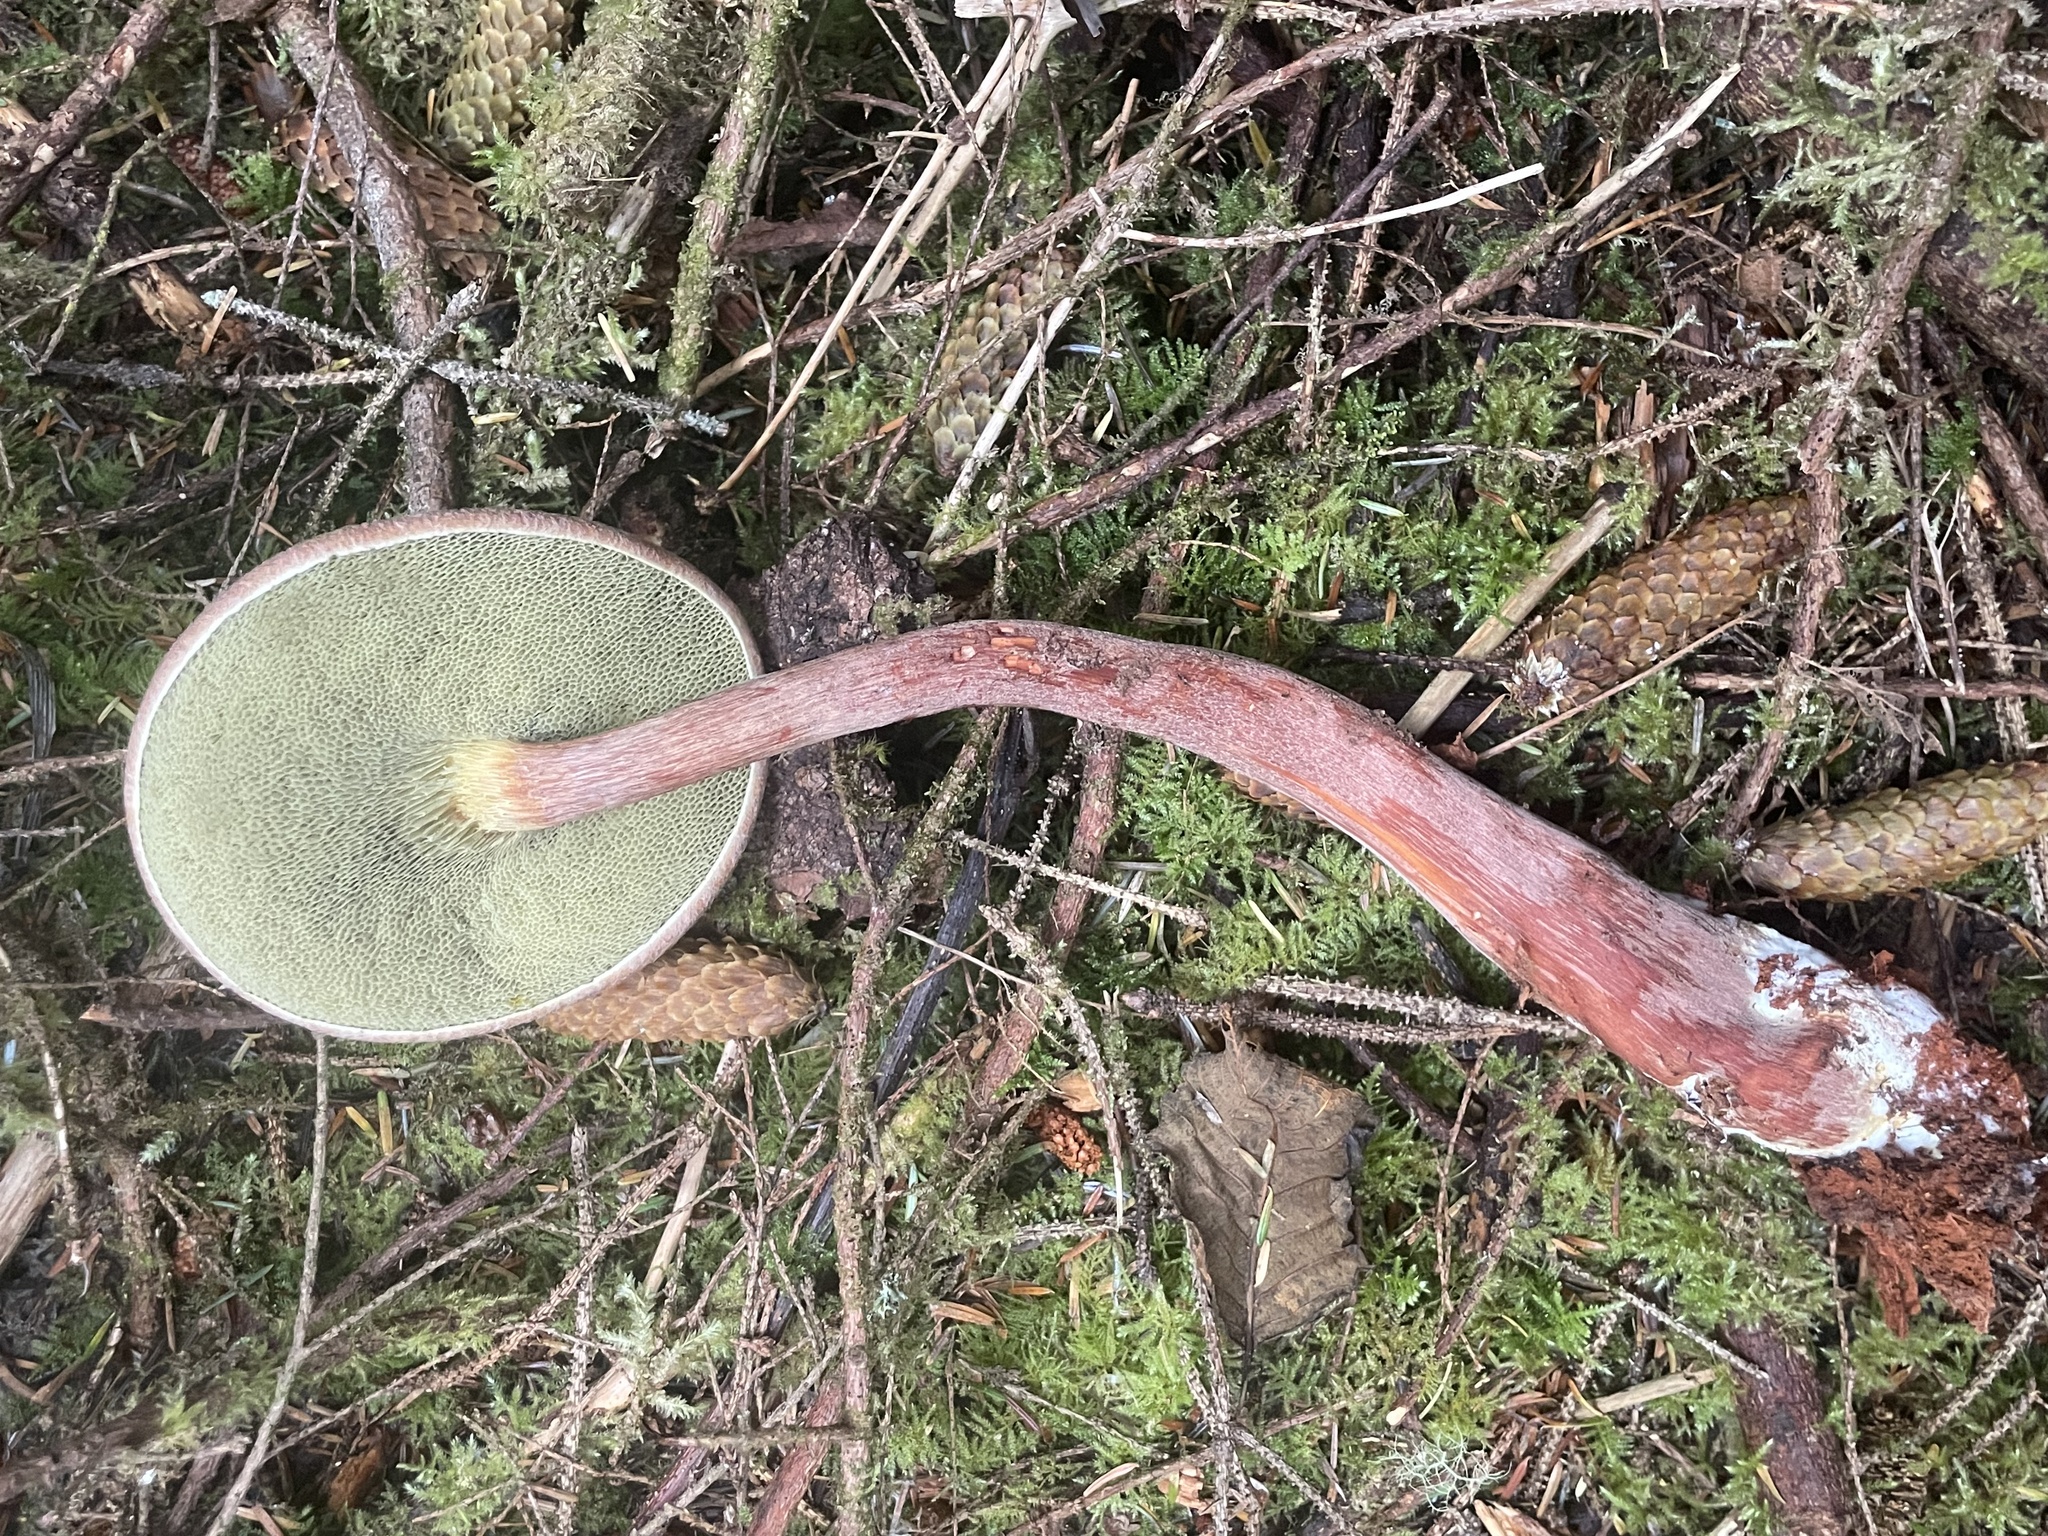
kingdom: Fungi
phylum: Basidiomycota
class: Agaricomycetes
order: Boletales
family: Boletaceae
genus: Aureoboletus
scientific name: Aureoboletus mirabilis
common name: Admirable bolete
